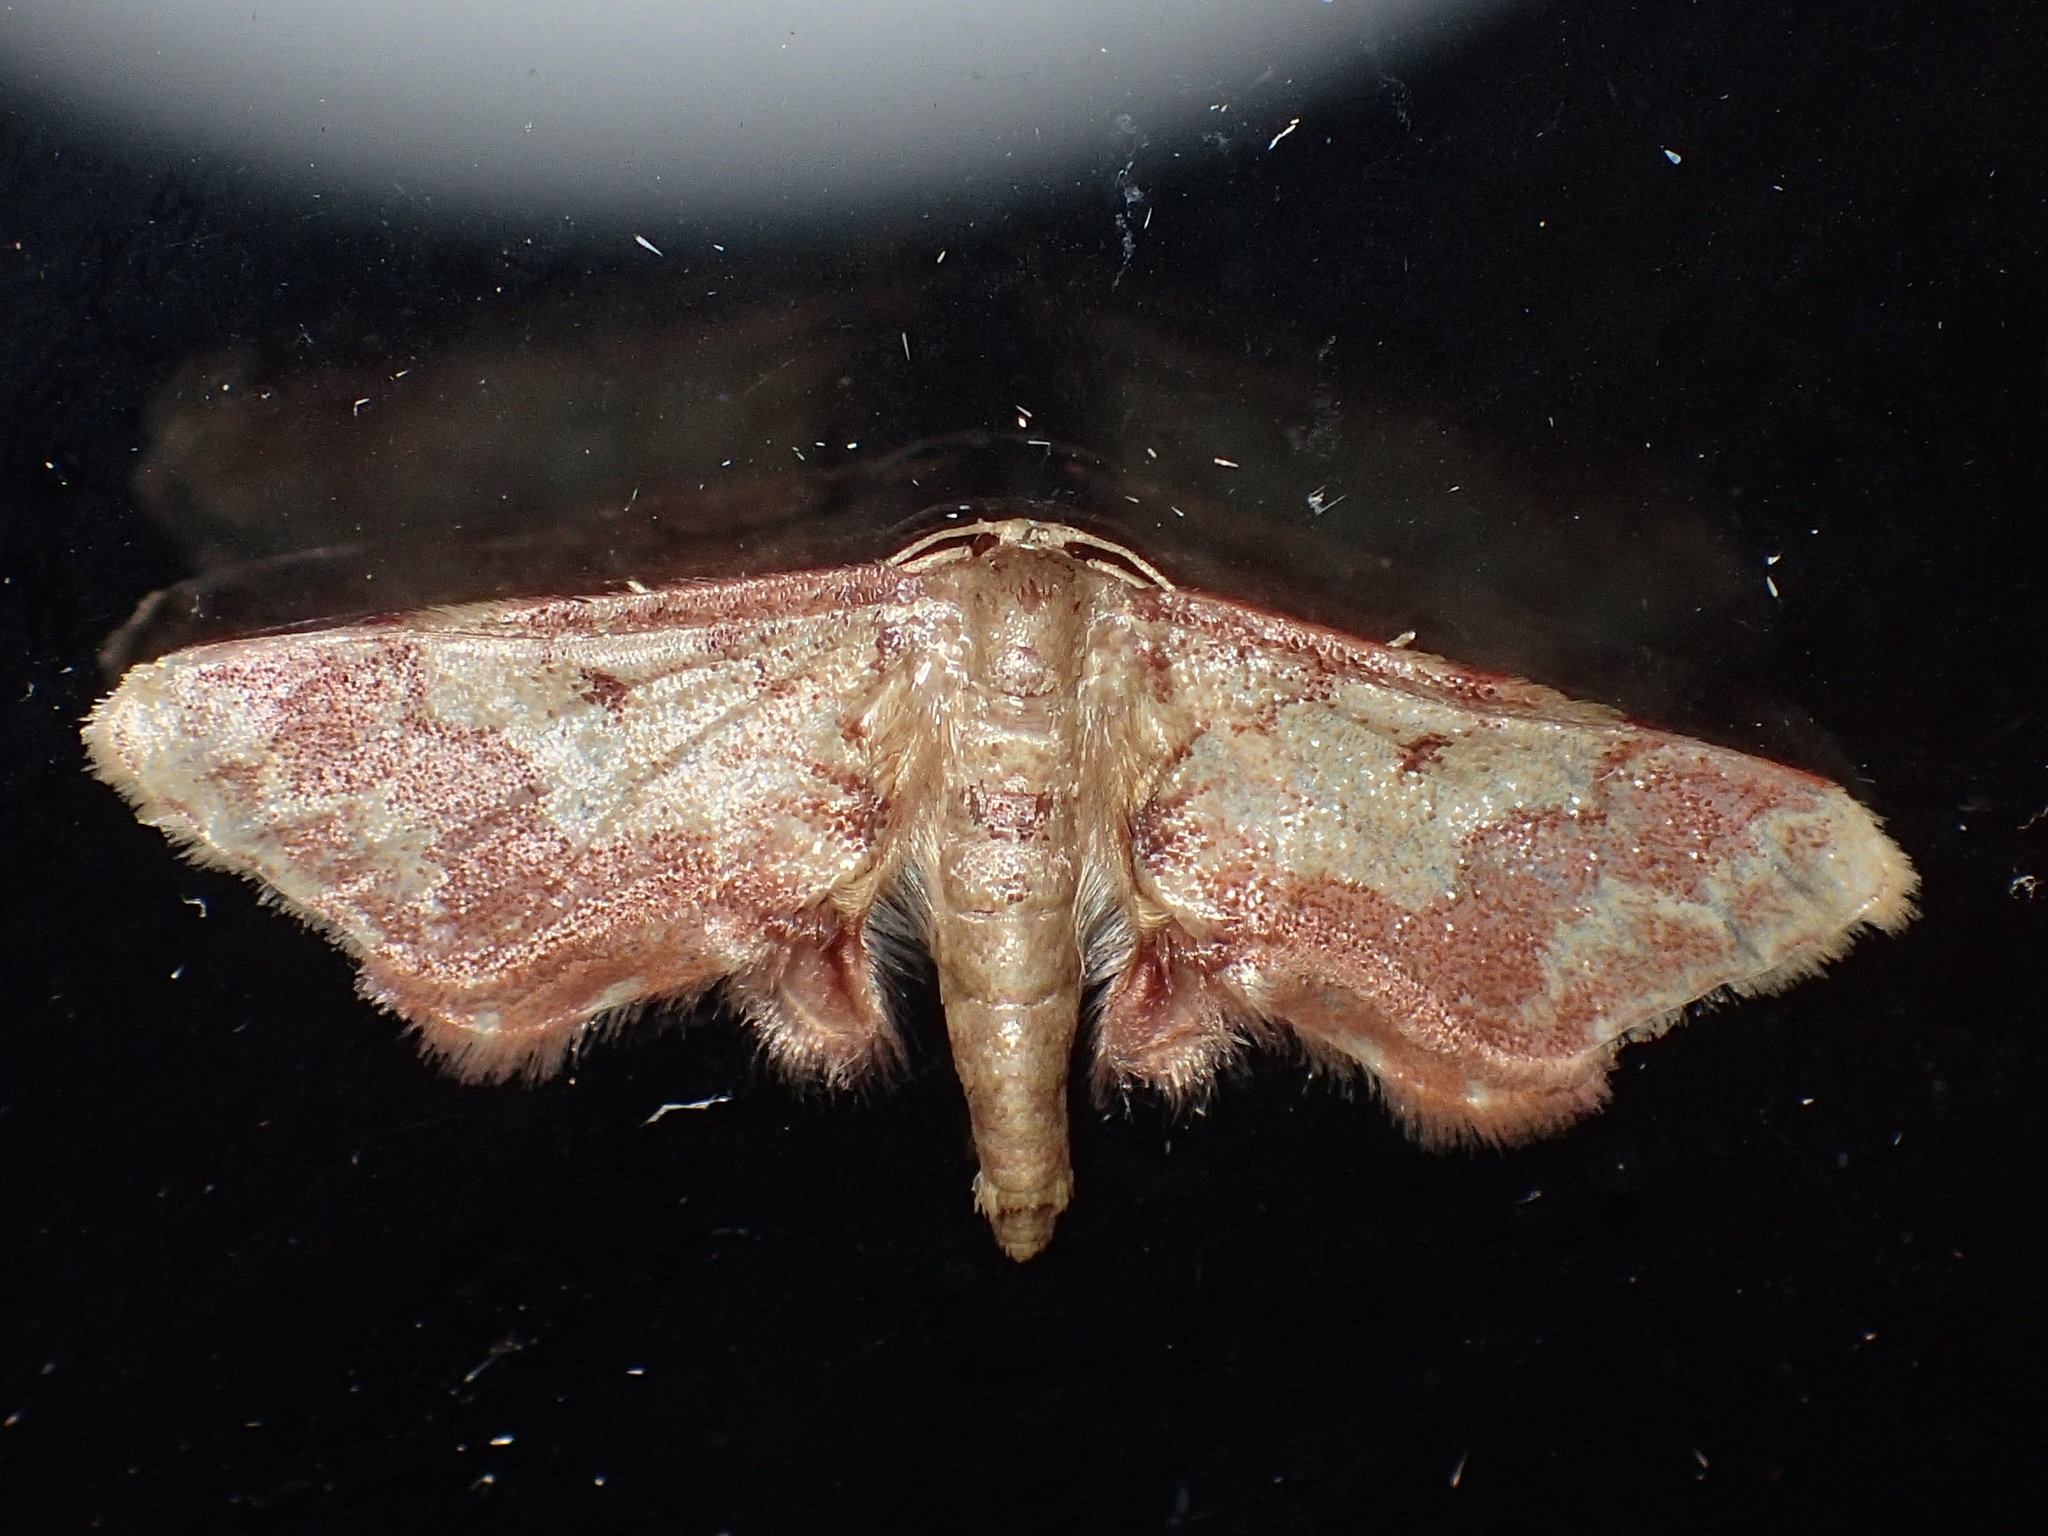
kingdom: Animalia
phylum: Arthropoda
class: Insecta
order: Lepidoptera
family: Geometridae
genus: Idaea
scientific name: Idaea furciferata
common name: Notch-winged wave
